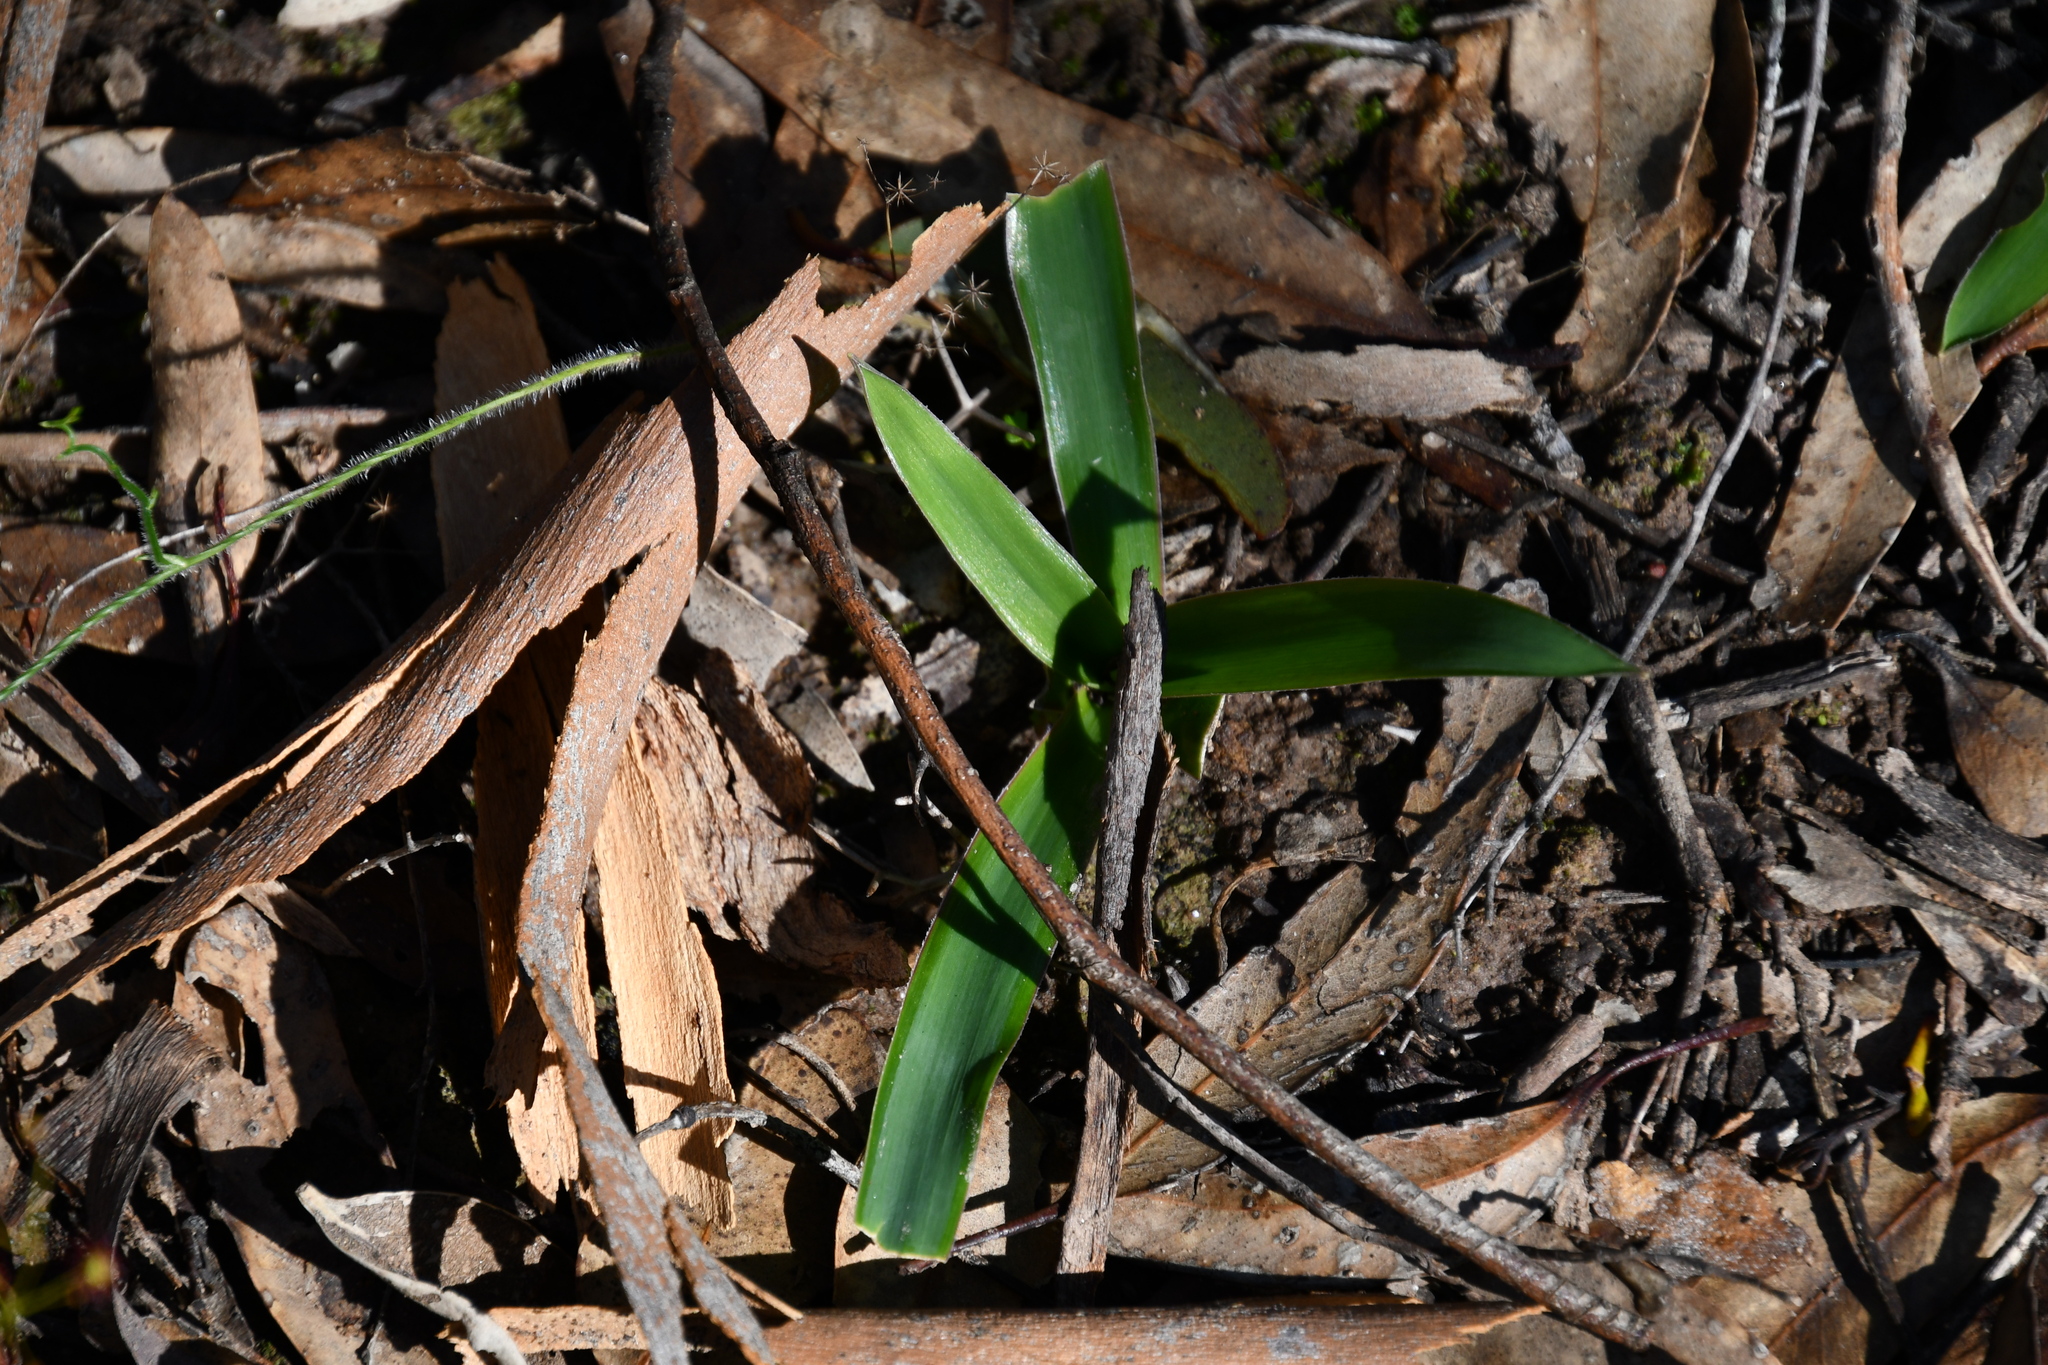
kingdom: Plantae
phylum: Tracheophyta
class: Liliopsida
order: Asparagales
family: Asphodelaceae
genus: Chamaescilla
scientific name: Chamaescilla corymbosa
